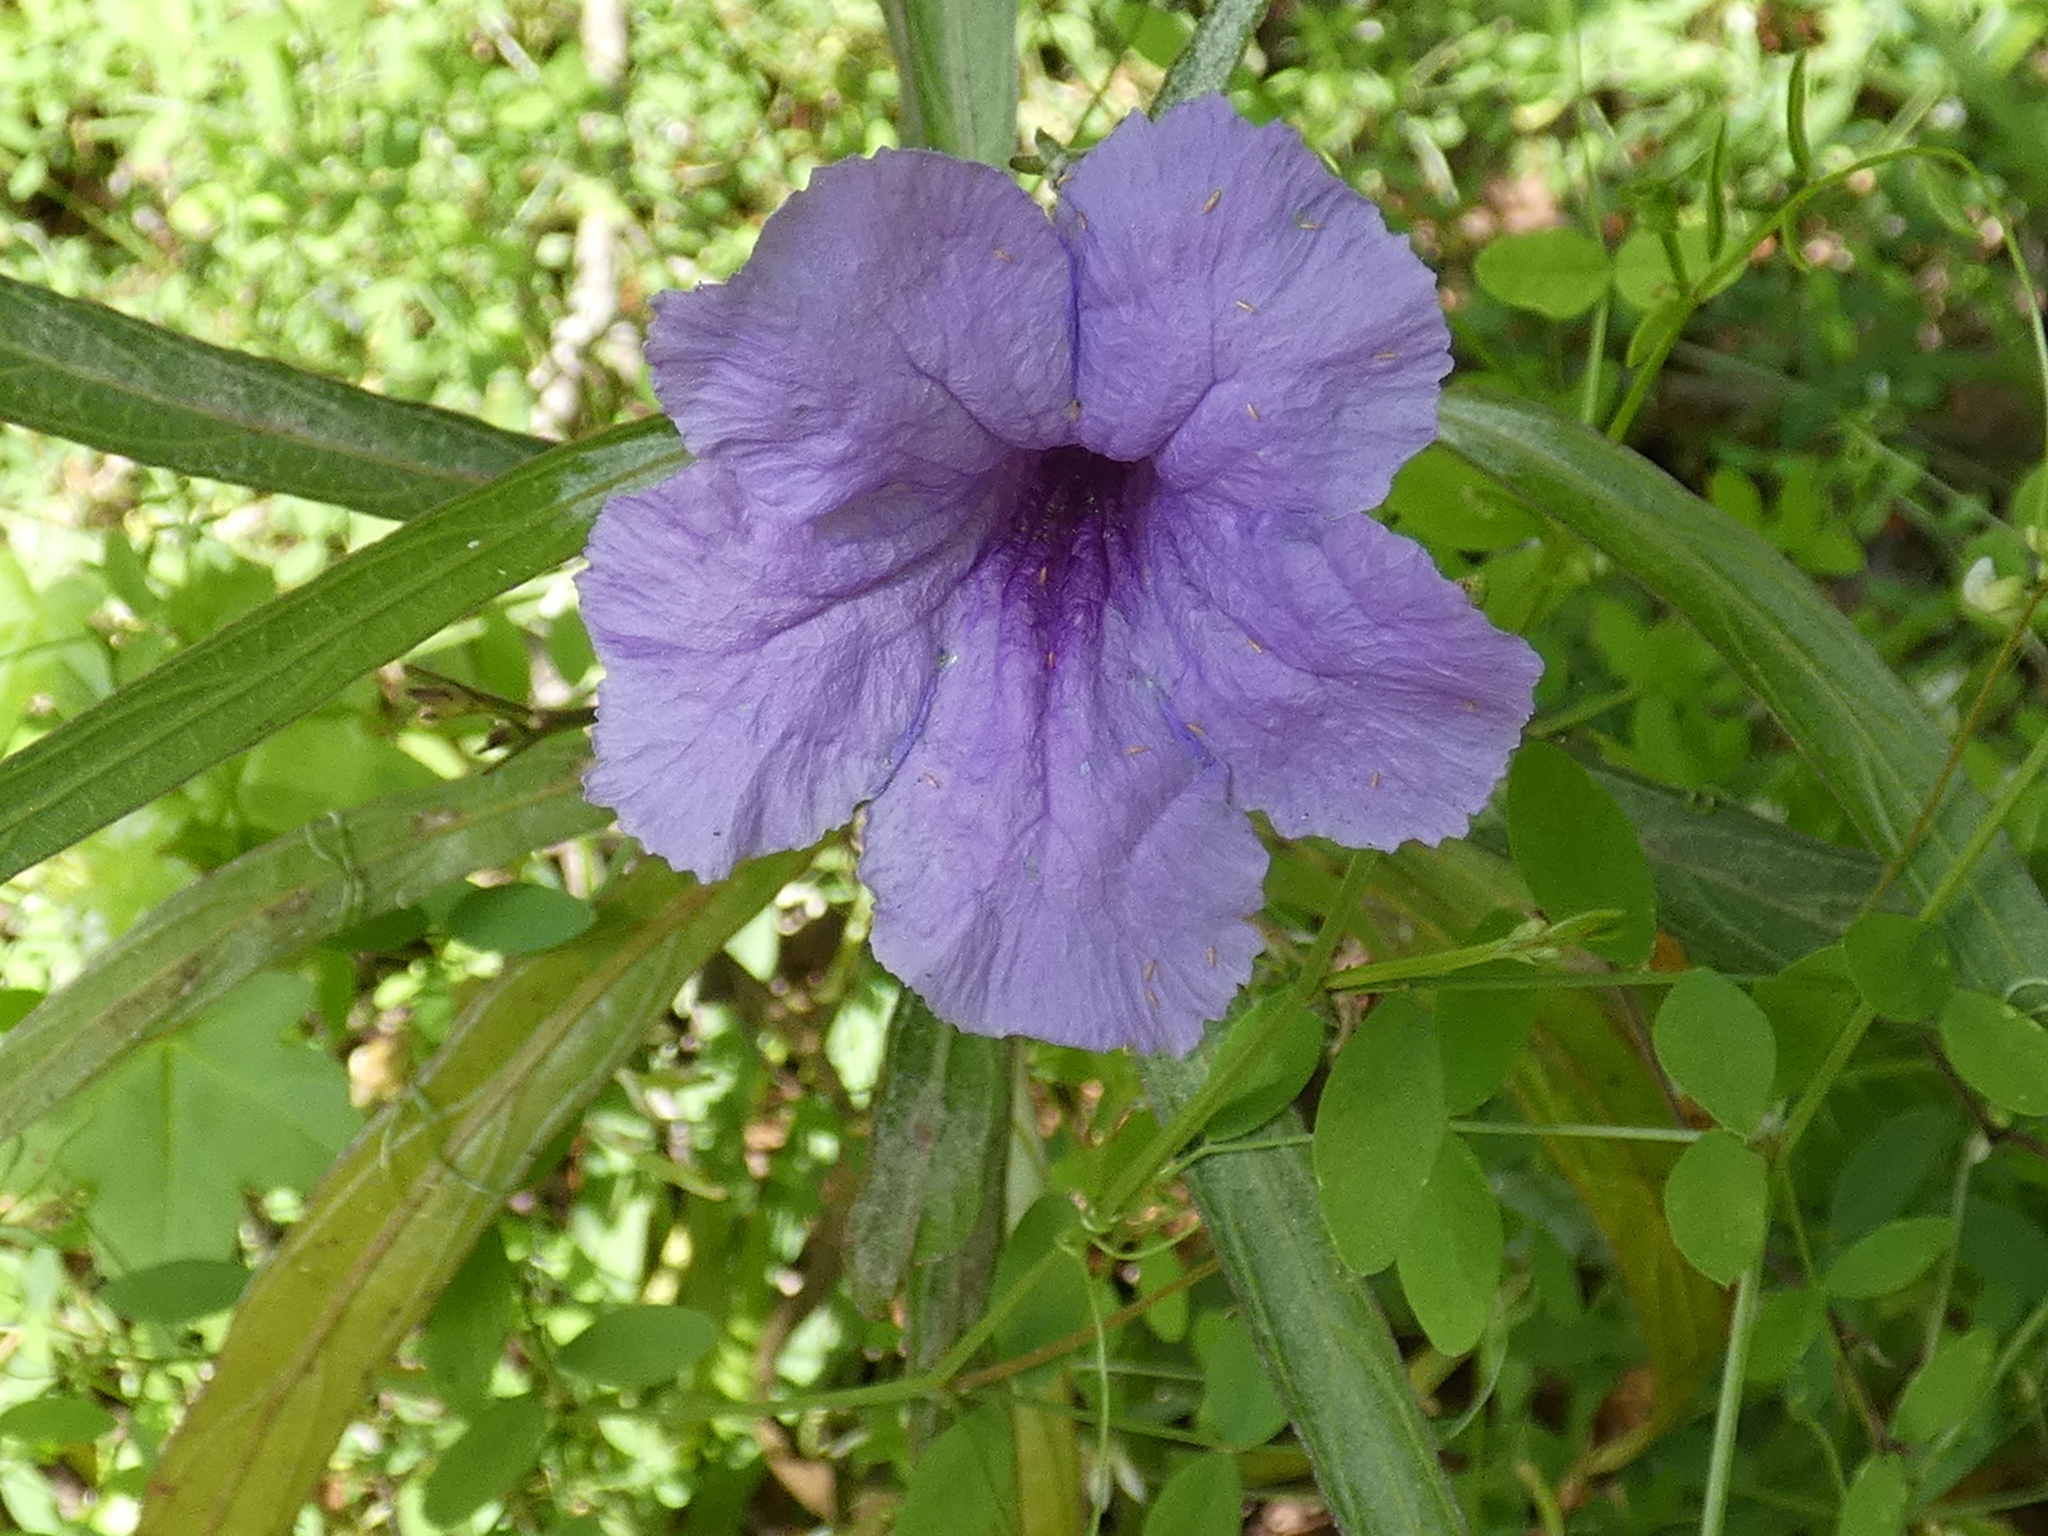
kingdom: Plantae
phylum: Tracheophyta
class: Magnoliopsida
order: Lamiales
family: Acanthaceae
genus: Ruellia
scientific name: Ruellia simplex
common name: Softseed wild petunia
